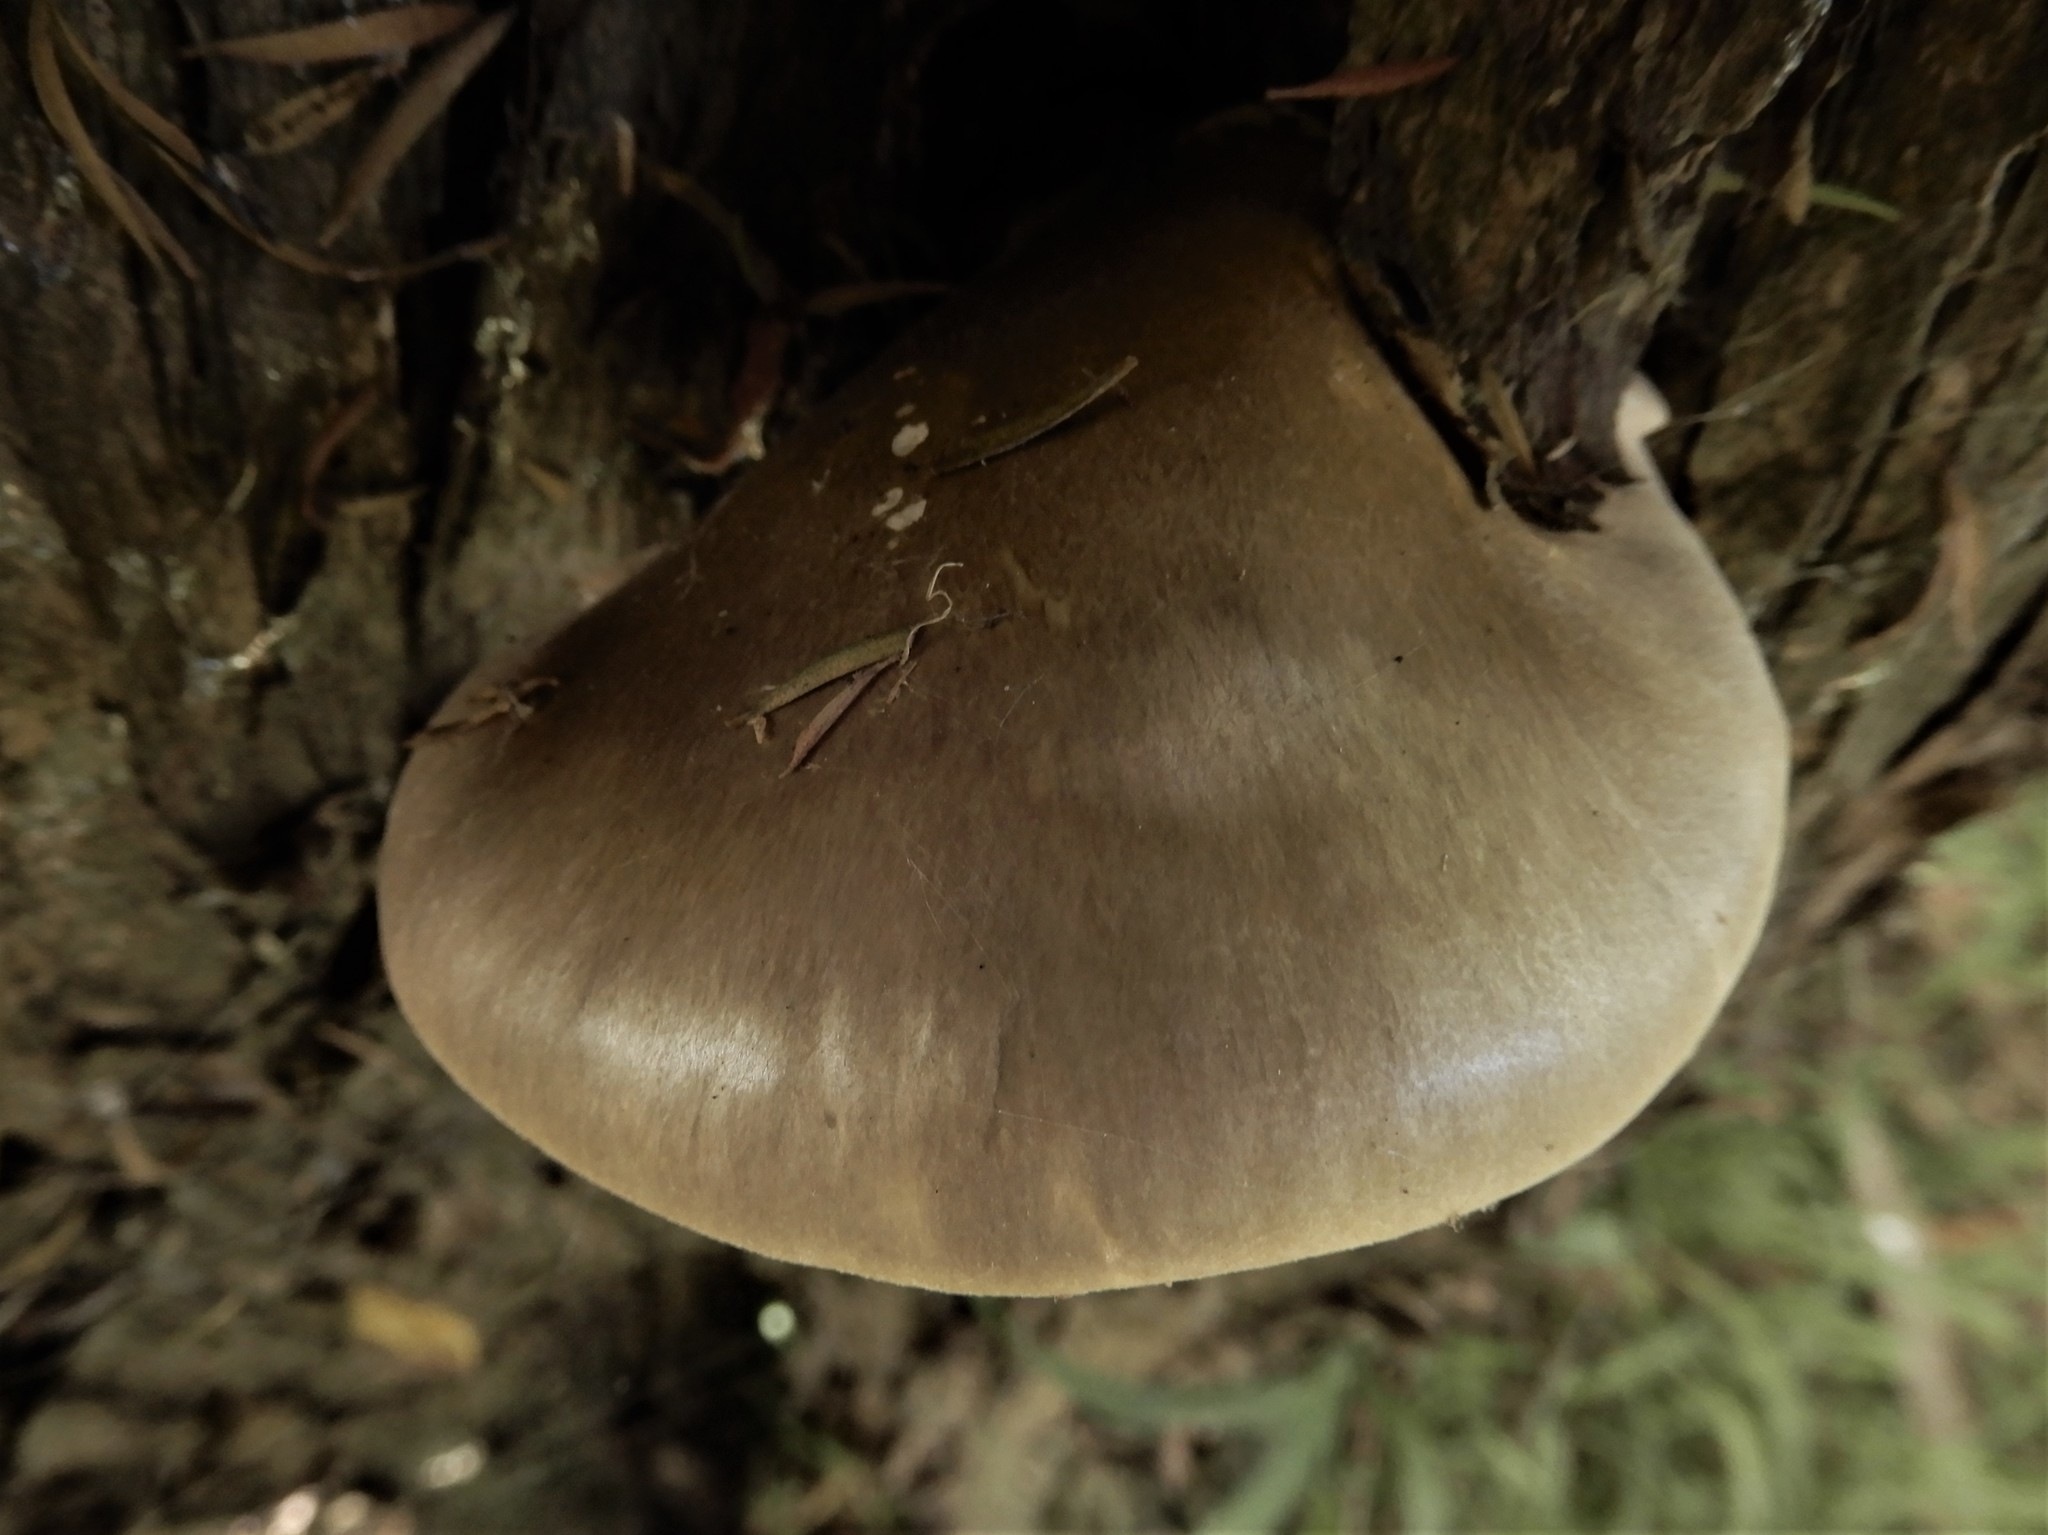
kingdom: Fungi
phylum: Basidiomycota
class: Agaricomycetes
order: Agaricales
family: Pleurotaceae
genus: Pleurotus
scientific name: Pleurotus australis
